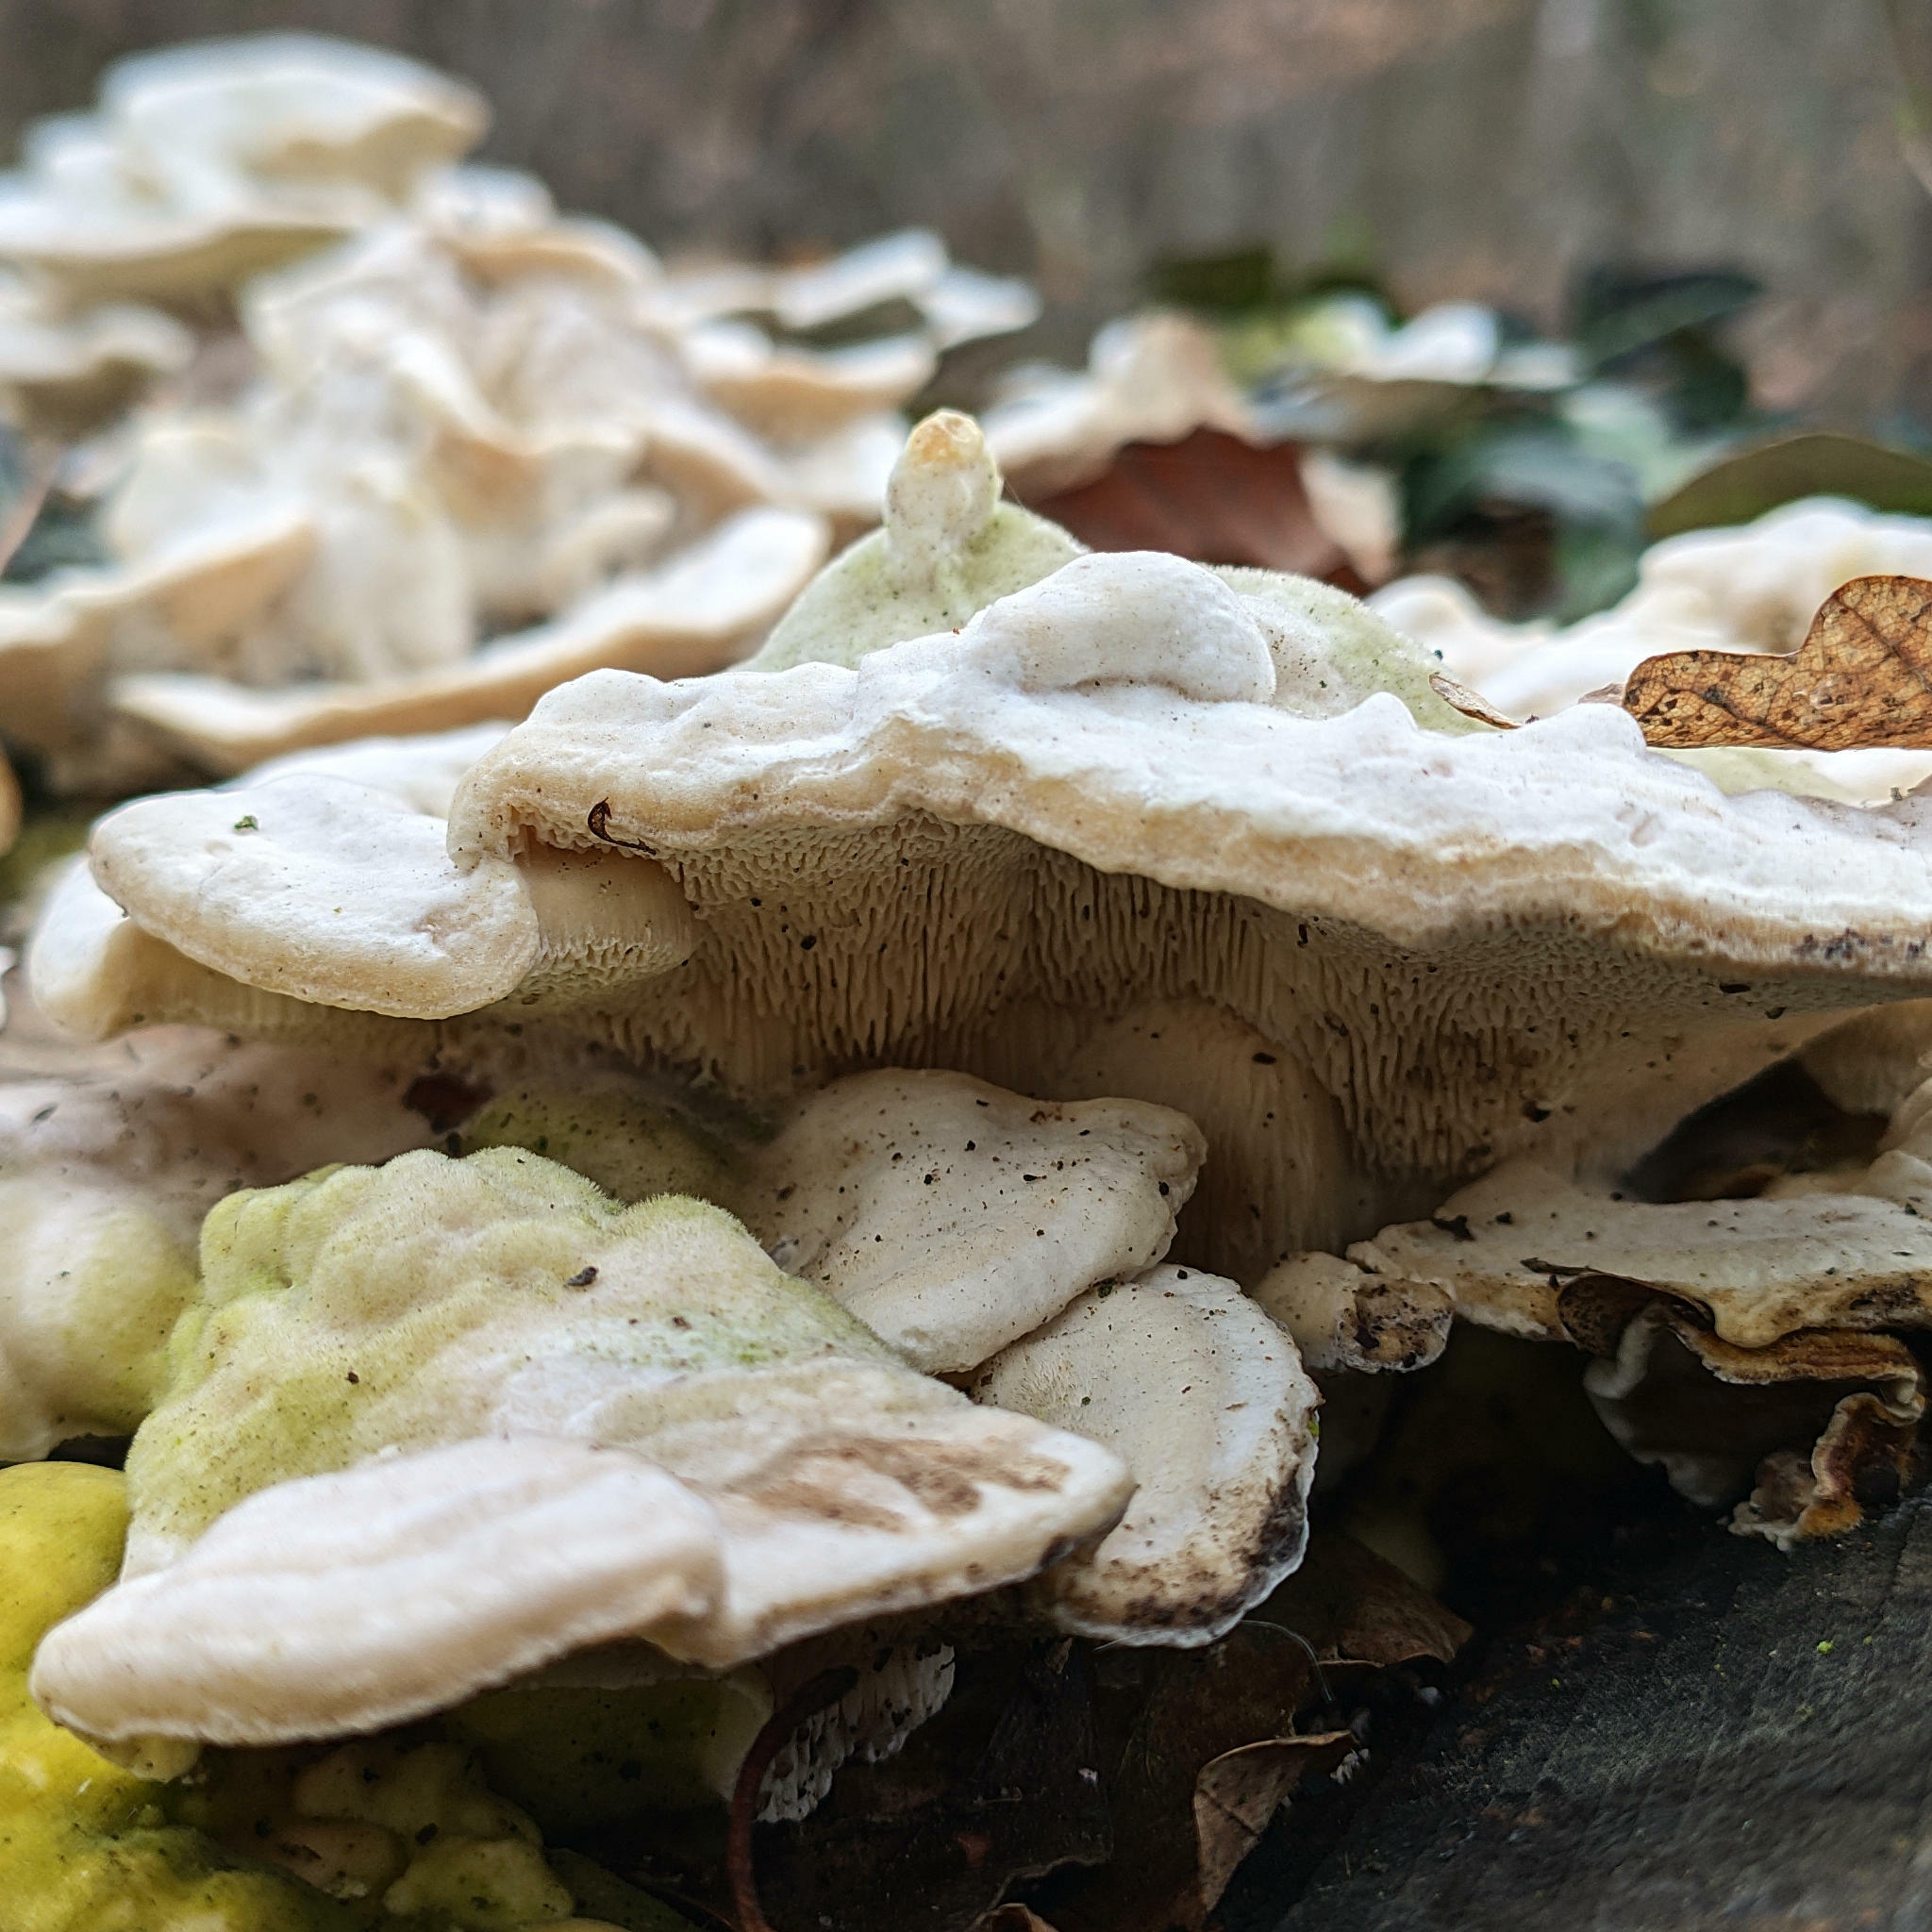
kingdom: Fungi
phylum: Basidiomycota
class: Agaricomycetes
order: Polyporales
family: Polyporaceae
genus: Trametes
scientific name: Trametes gibbosa
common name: Lumpy bracket
